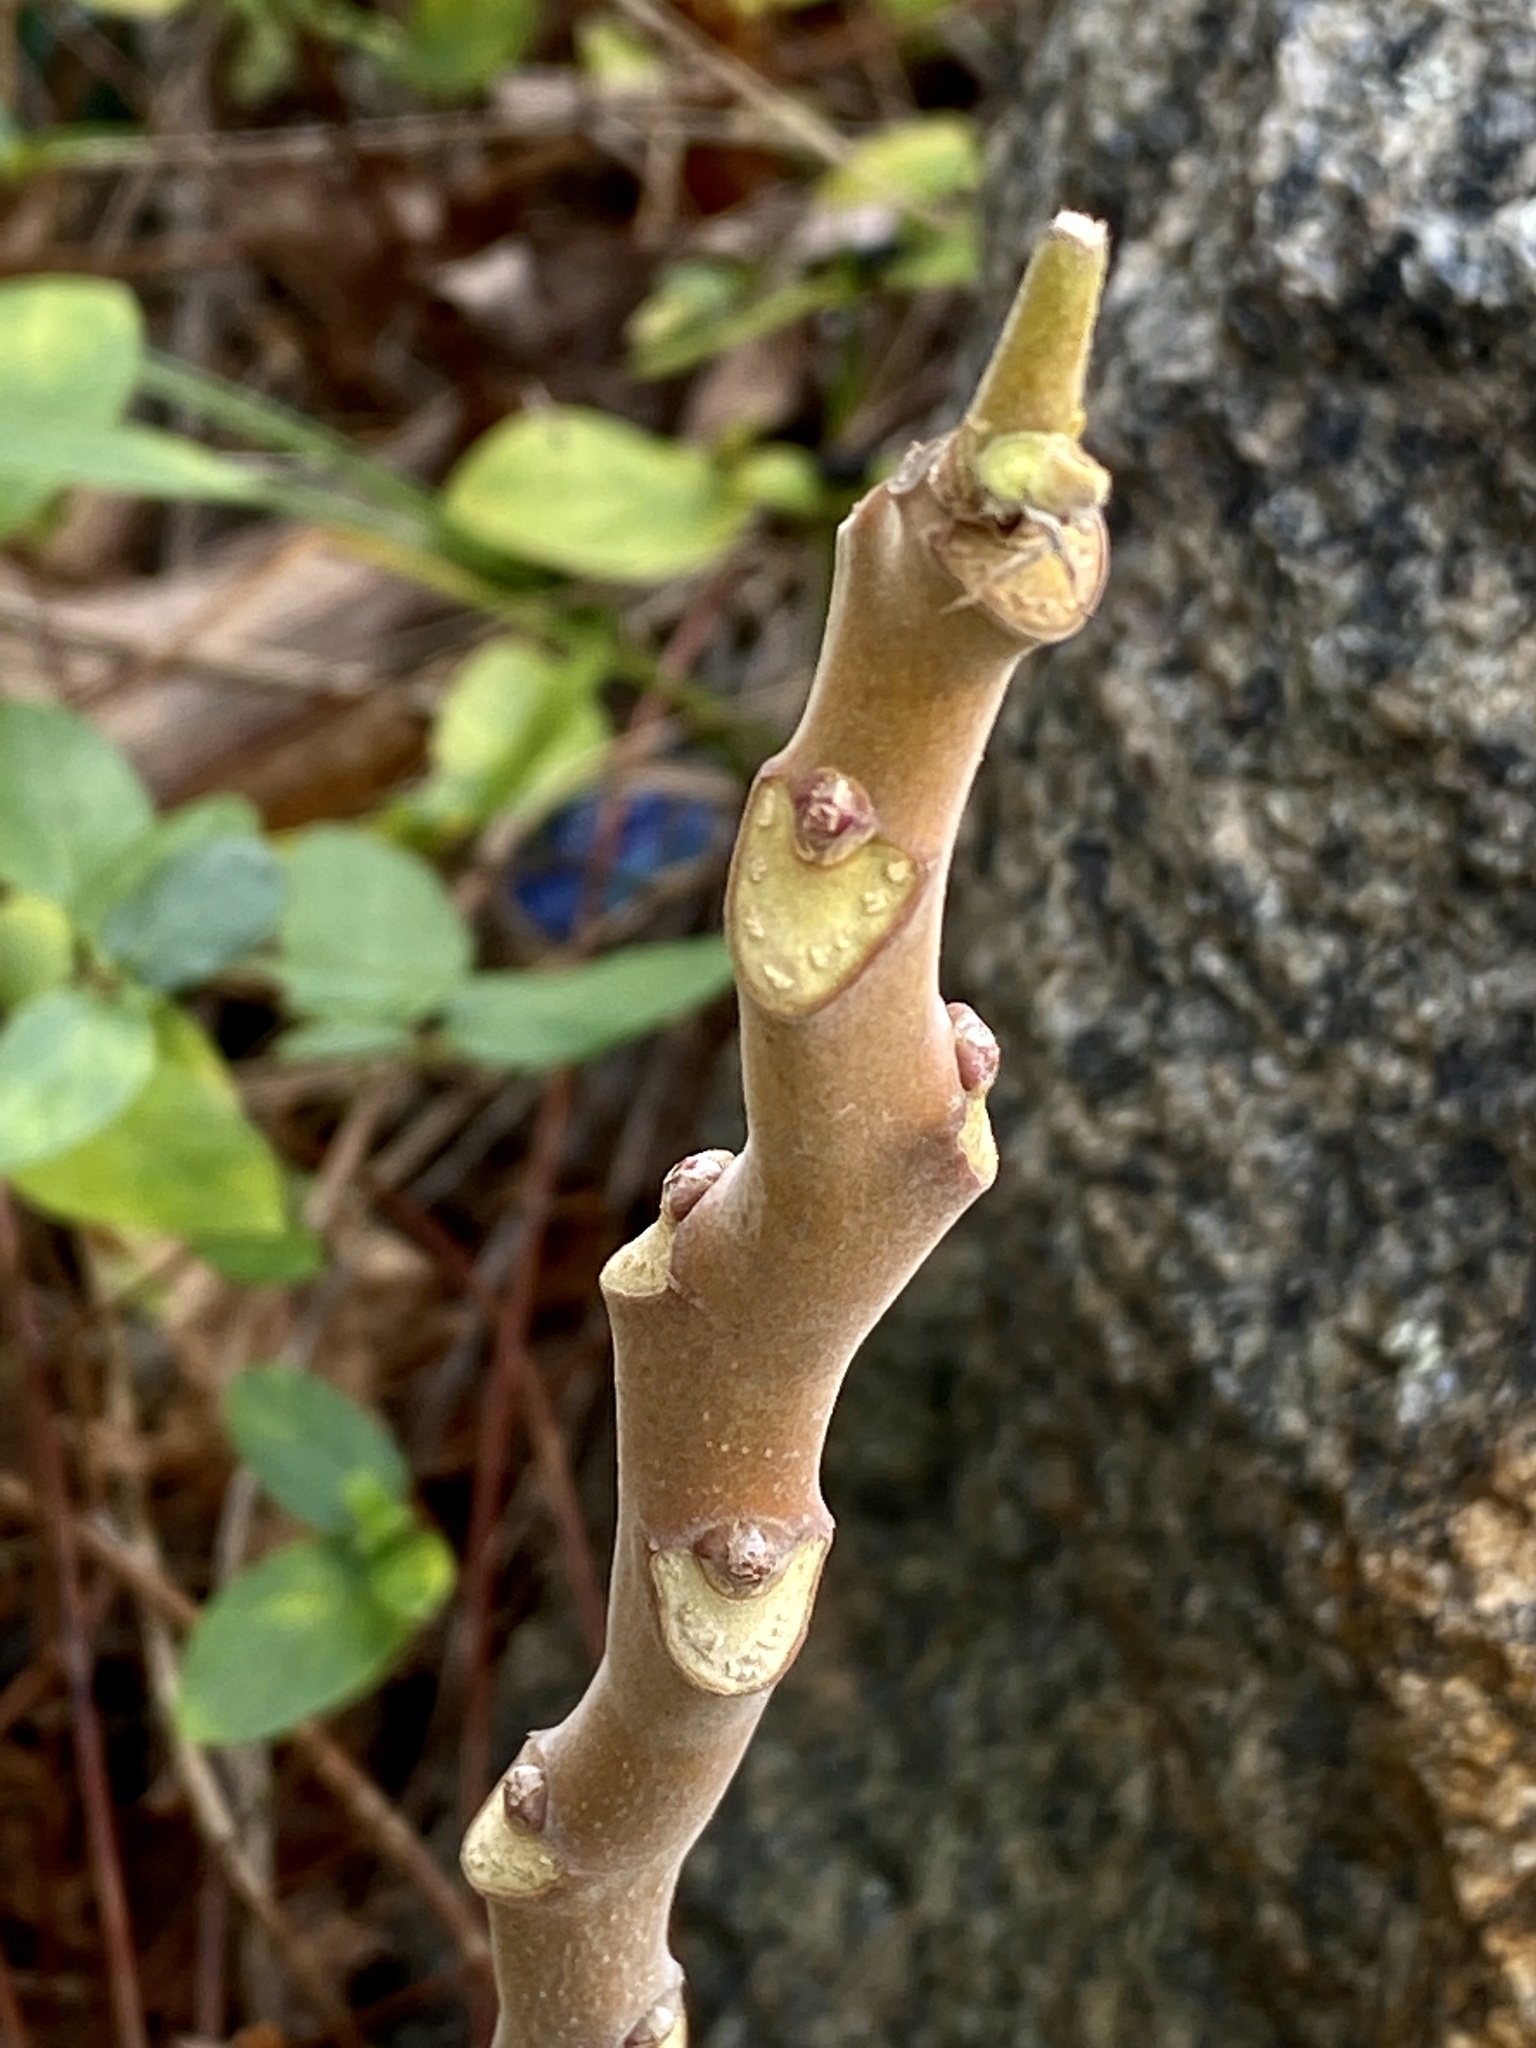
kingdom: Plantae
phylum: Tracheophyta
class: Magnoliopsida
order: Sapindales
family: Simaroubaceae
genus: Ailanthus
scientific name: Ailanthus altissima
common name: Tree-of-heaven
